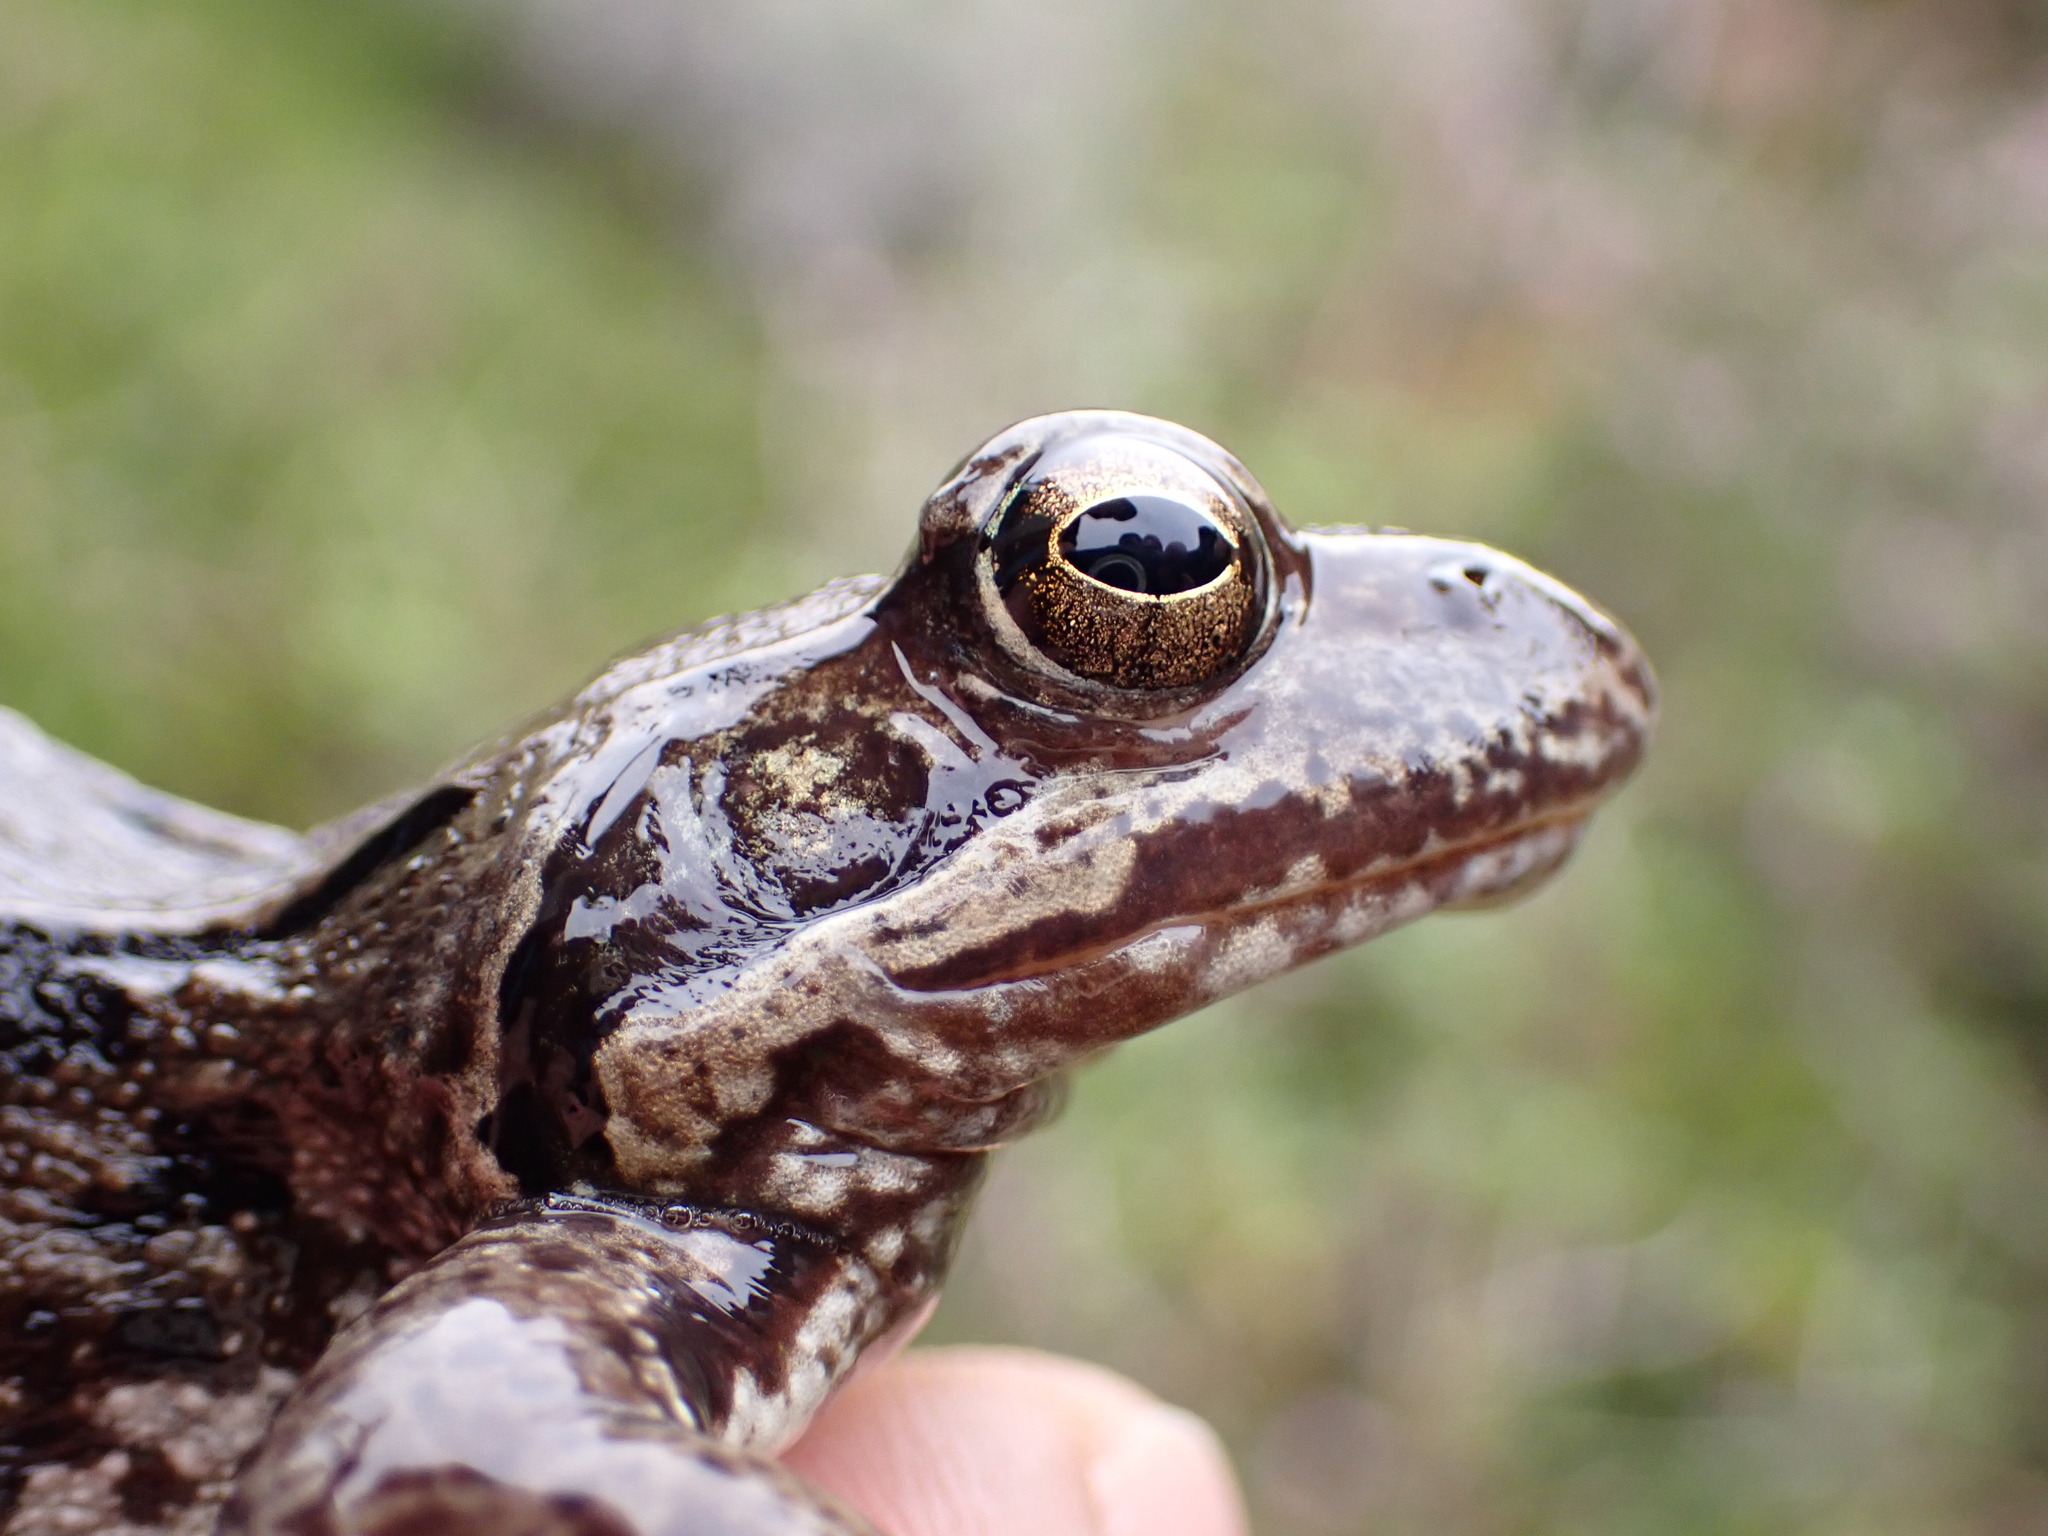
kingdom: Animalia
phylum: Chordata
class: Amphibia
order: Anura
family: Ranidae
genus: Rana
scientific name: Rana temporaria
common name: Common frog
